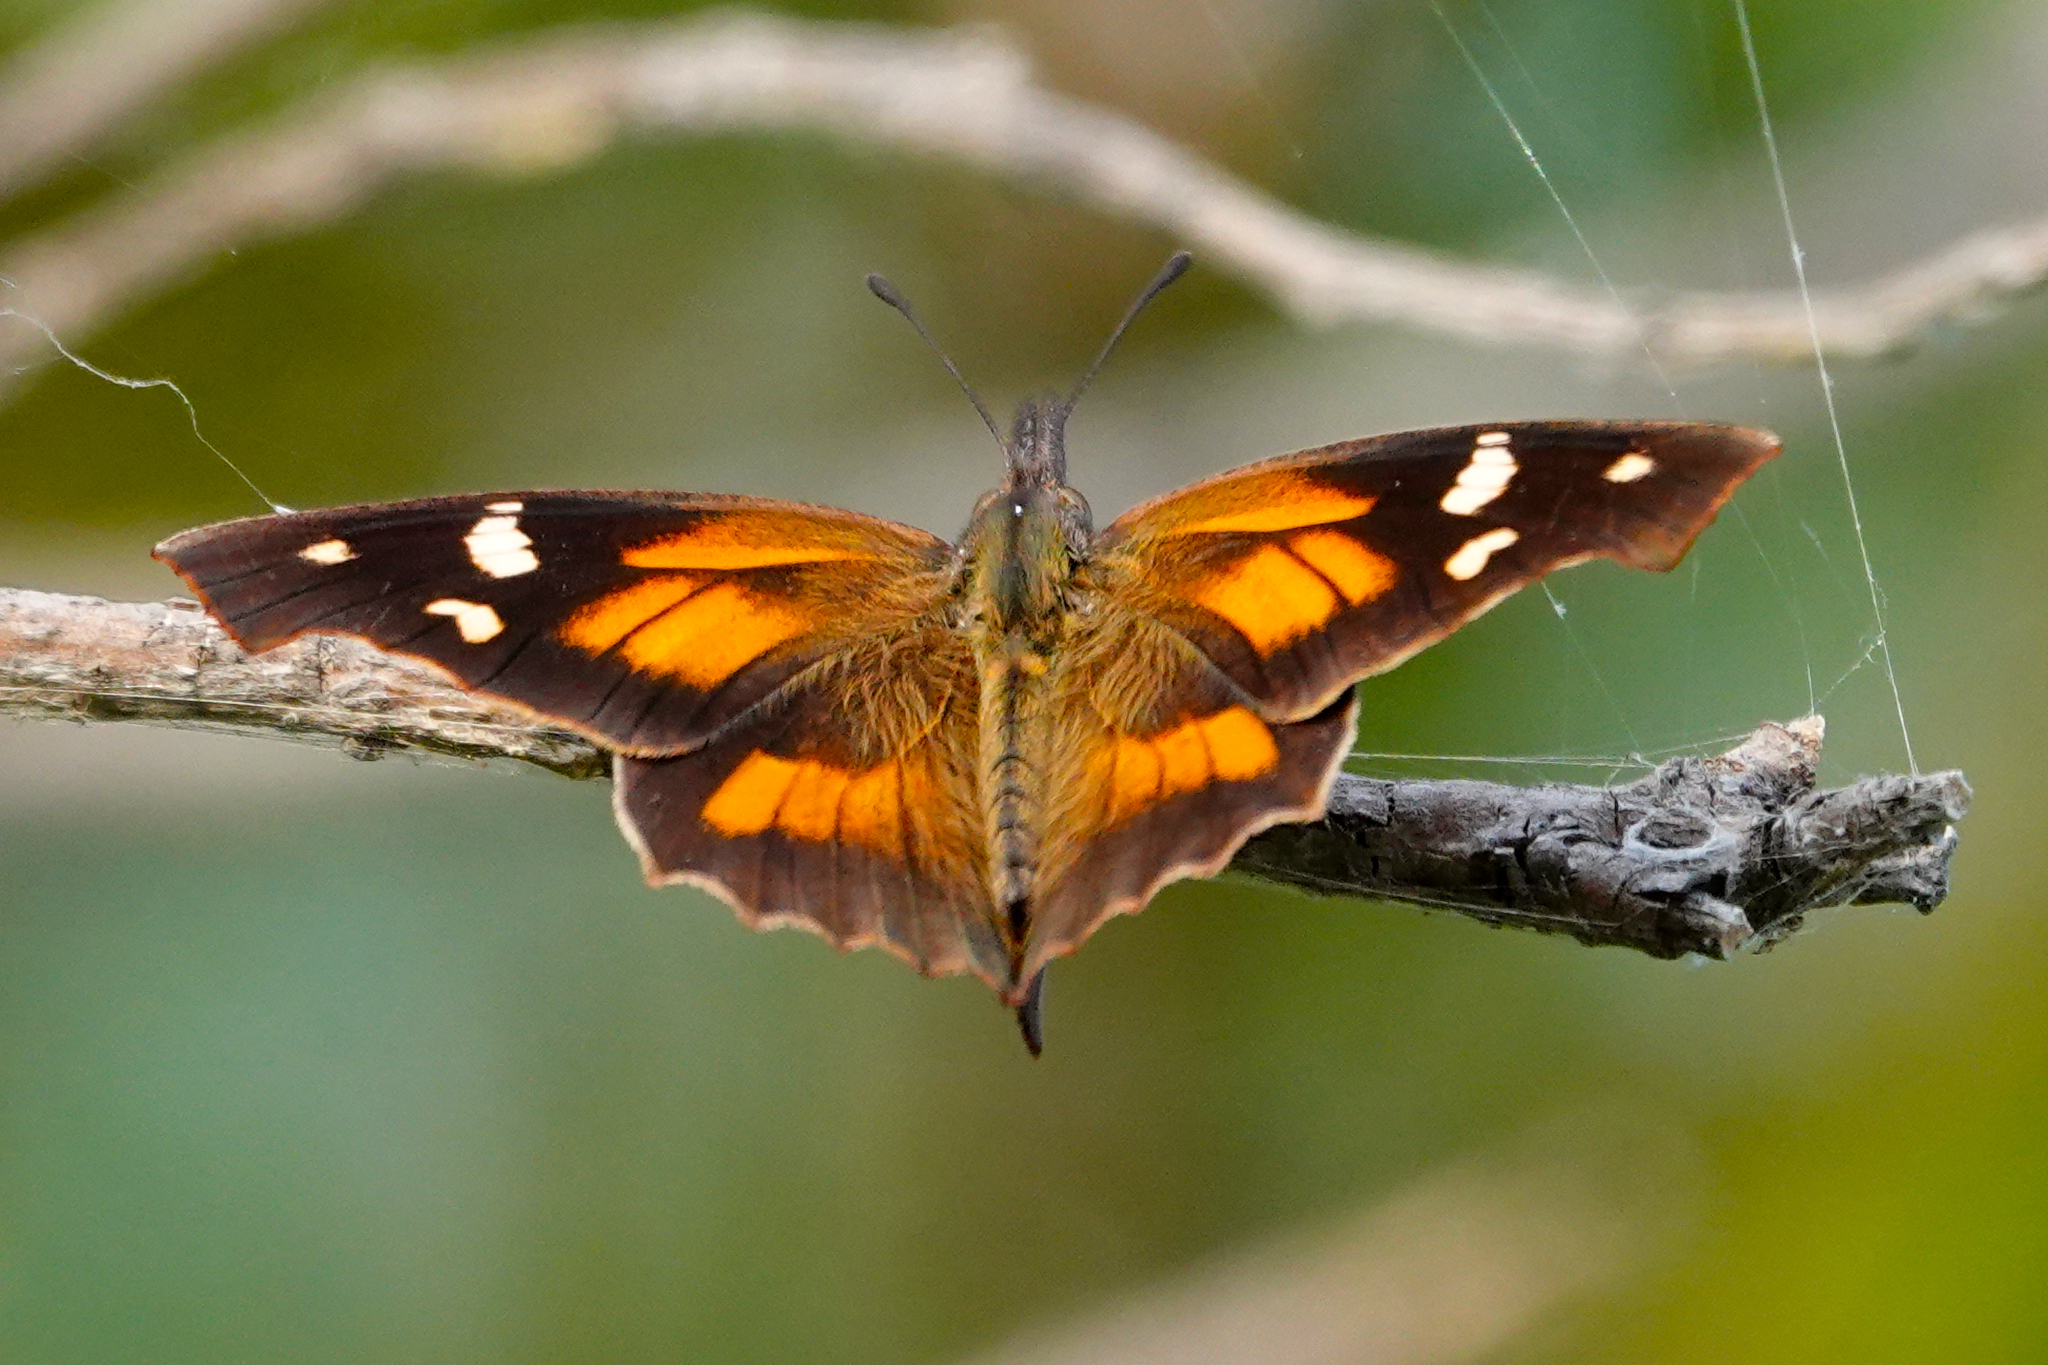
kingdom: Animalia
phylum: Arthropoda
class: Insecta
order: Lepidoptera
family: Nymphalidae
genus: Libytheana
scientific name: Libytheana carinenta
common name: American snout
